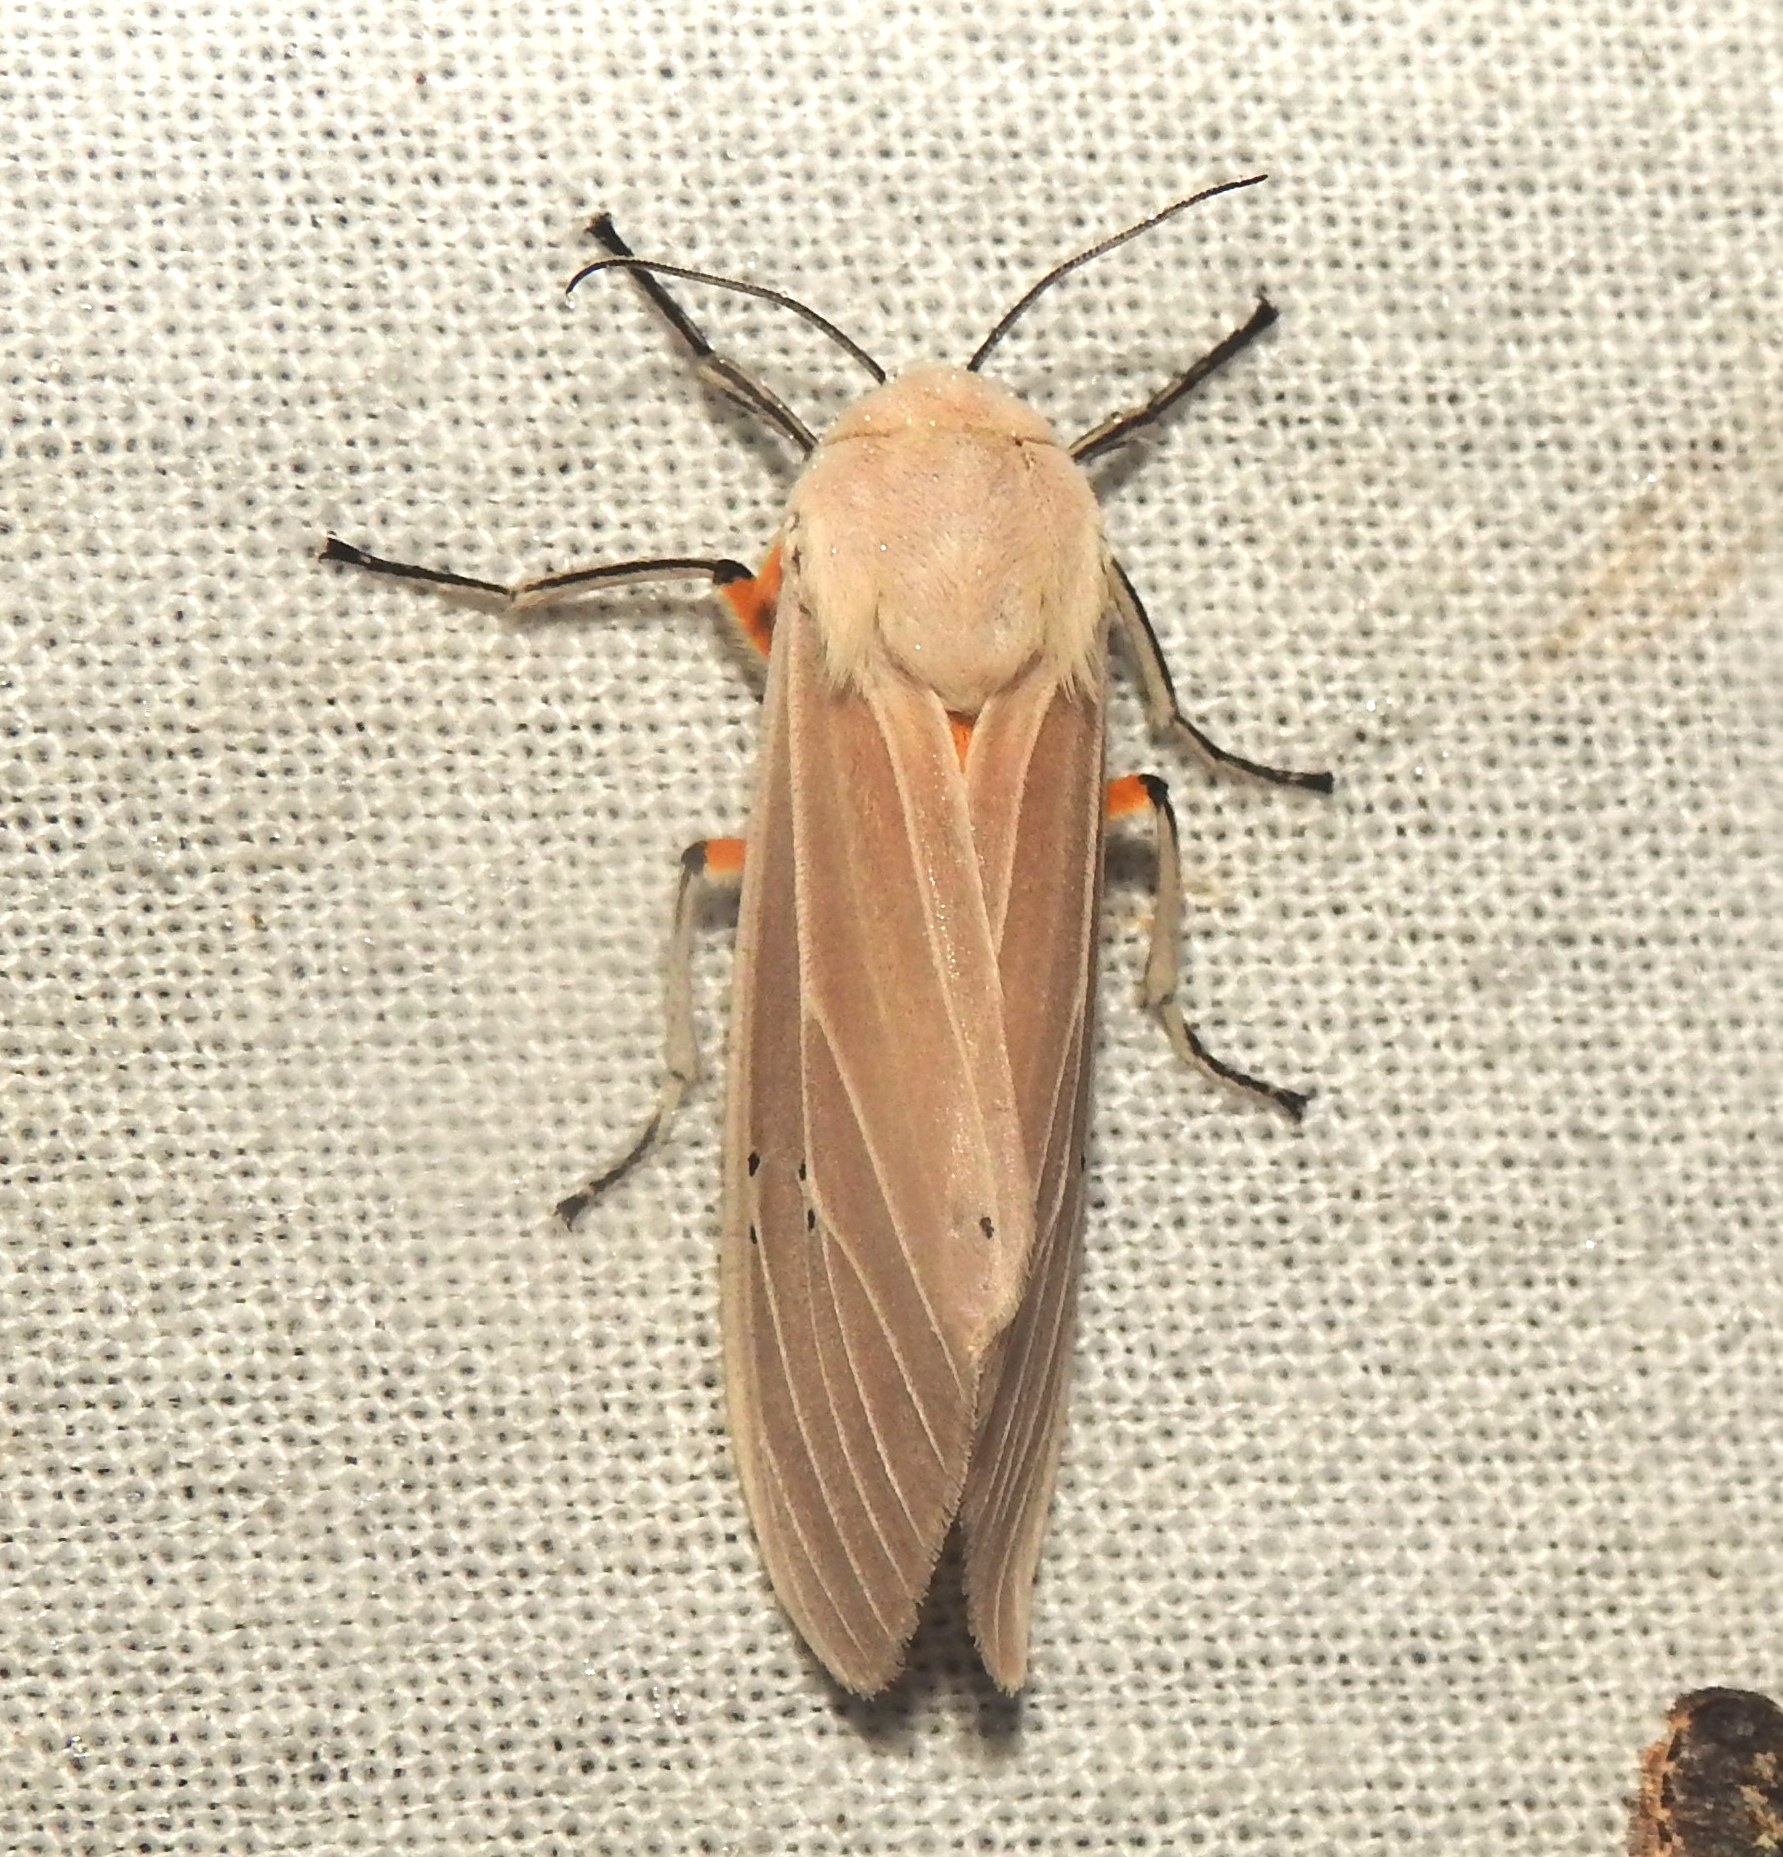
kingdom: Animalia
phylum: Arthropoda
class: Insecta
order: Lepidoptera
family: Erebidae
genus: Creatonotos
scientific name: Creatonotos transiens
